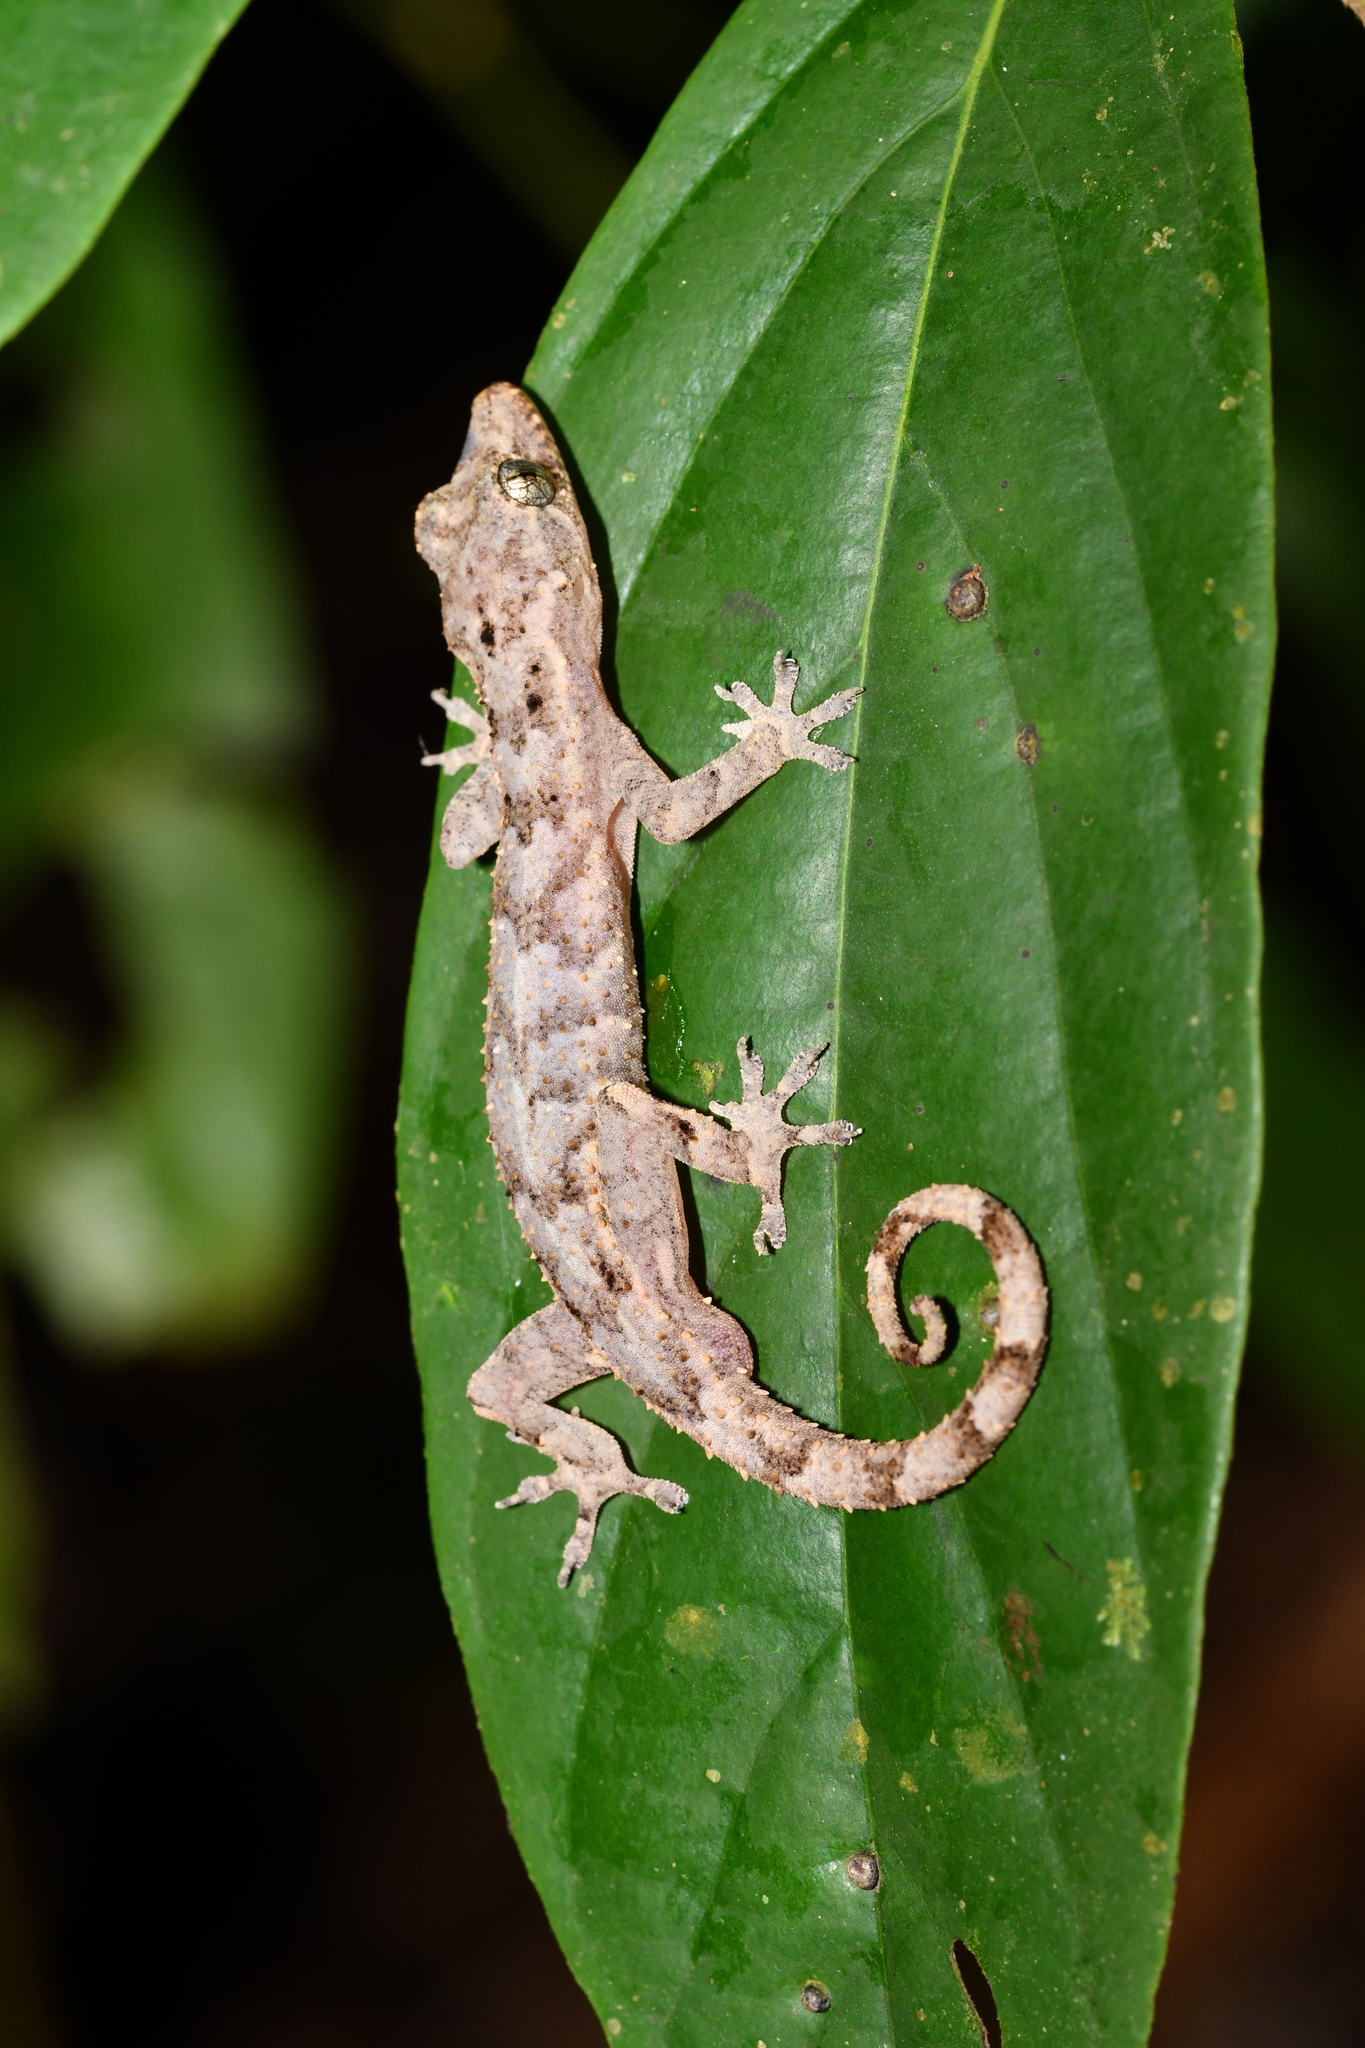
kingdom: Animalia
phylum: Chordata
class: Squamata
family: Gekkonidae
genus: Hemidactylus
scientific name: Hemidactylus ansorgii
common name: Nigeria leaf-toed gecko
